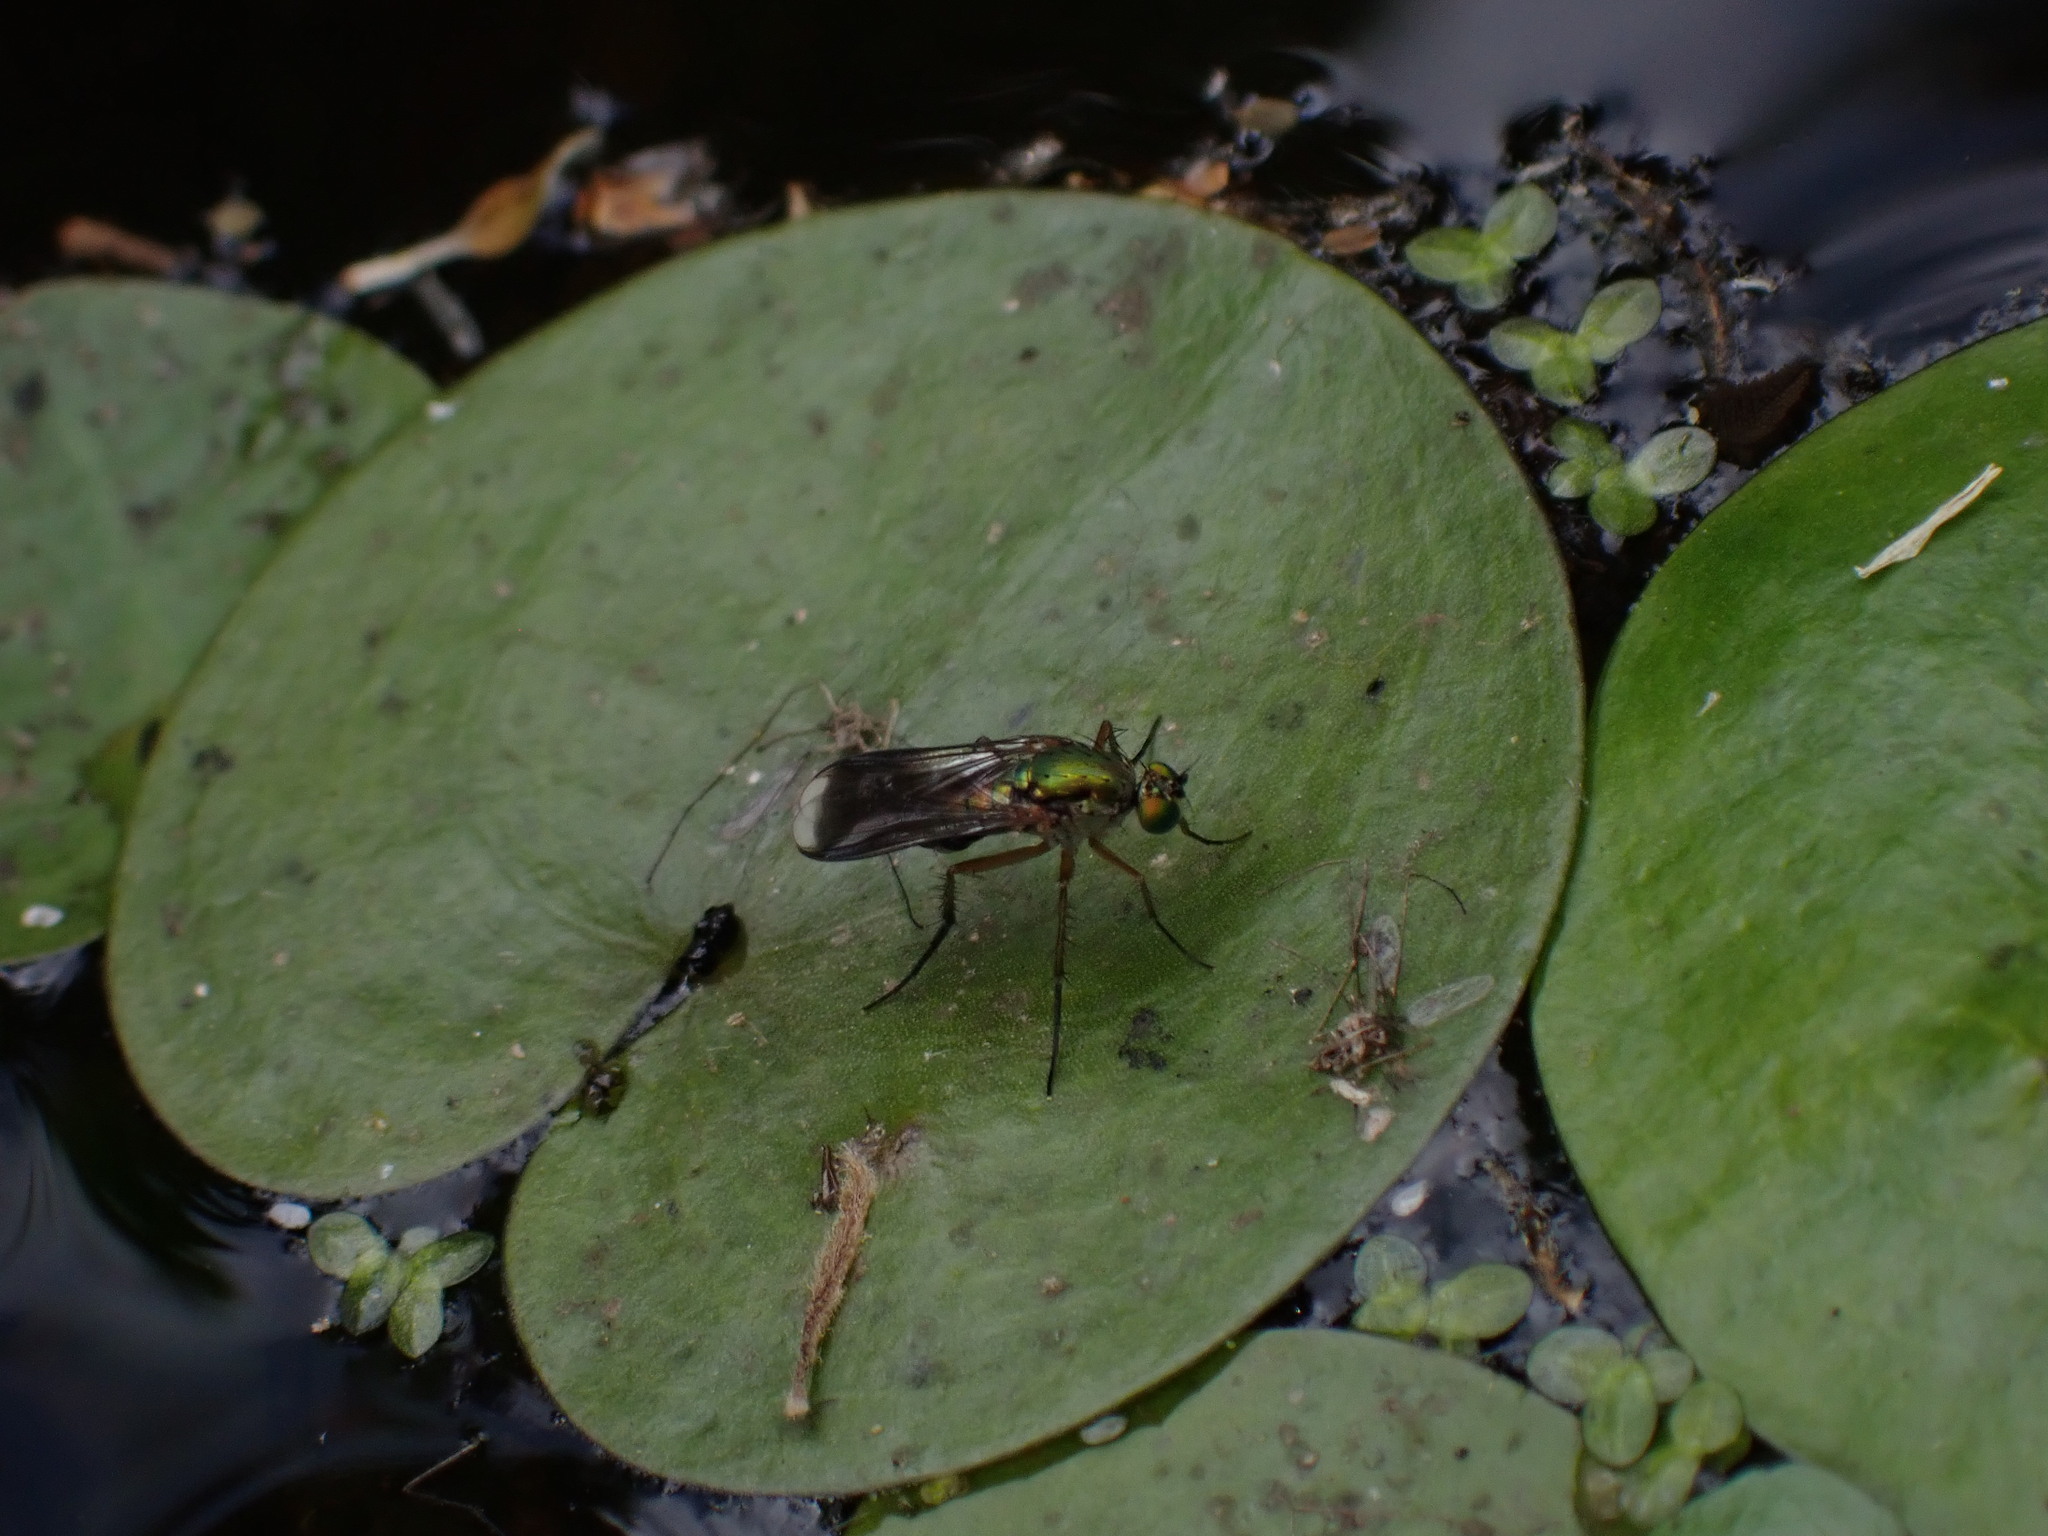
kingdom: Animalia
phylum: Arthropoda
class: Insecta
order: Diptera
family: Dolichopodidae
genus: Poecilobothrus
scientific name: Poecilobothrus nobilitatus
